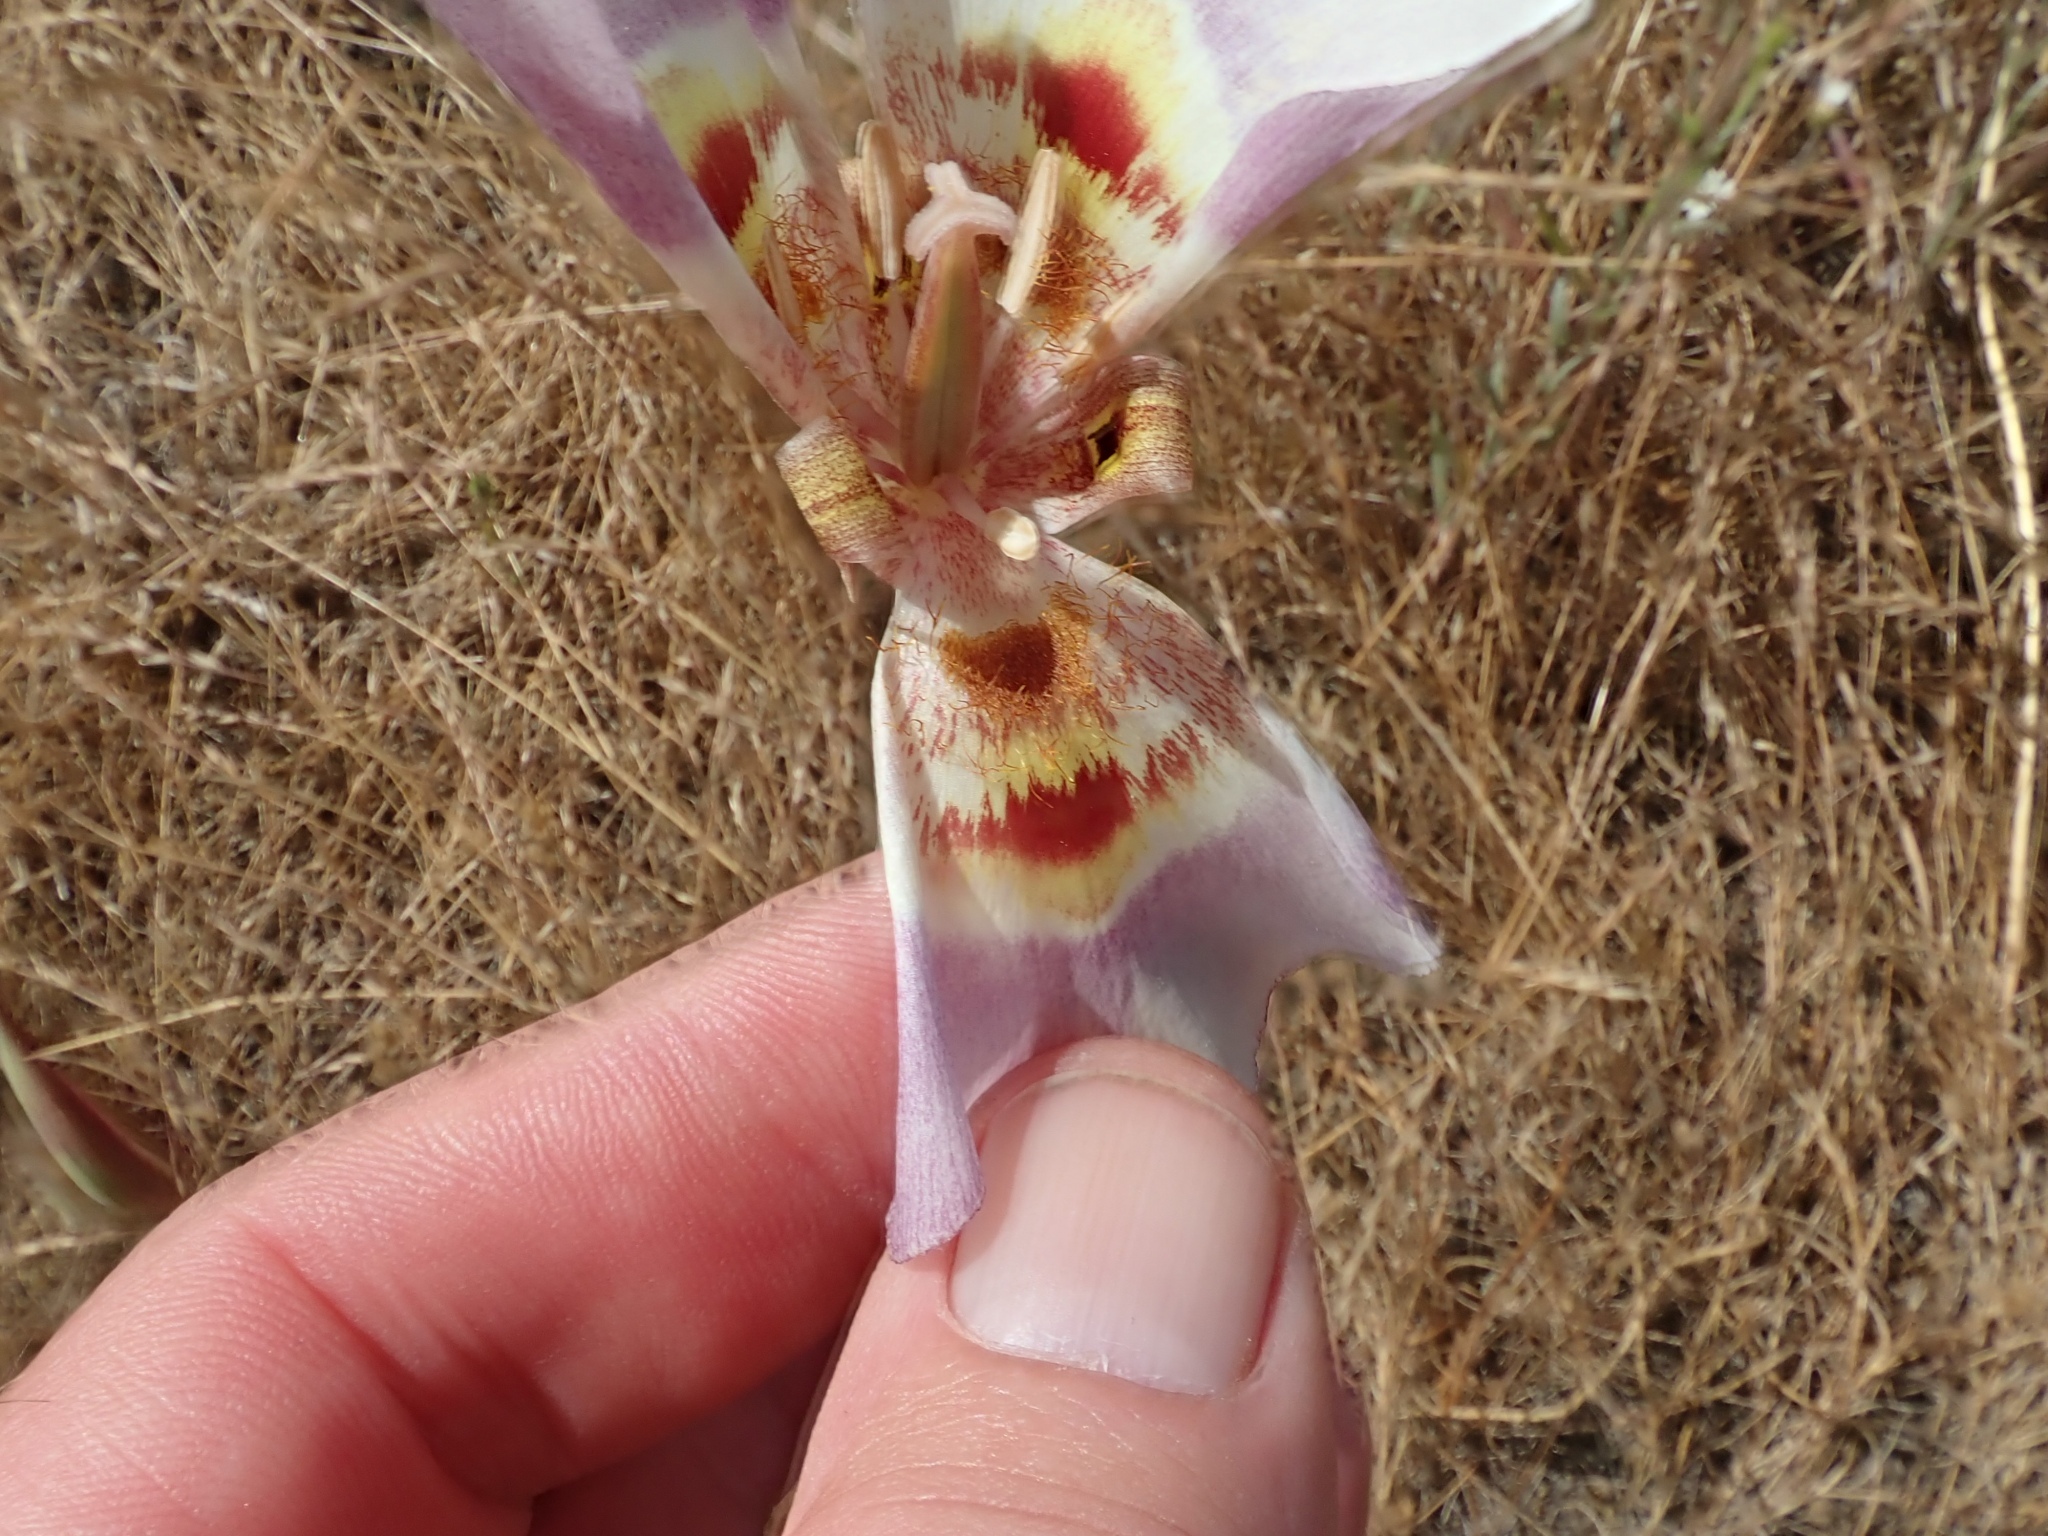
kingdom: Plantae
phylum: Tracheophyta
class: Liliopsida
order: Liliales
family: Liliaceae
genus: Calochortus
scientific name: Calochortus argillosus
